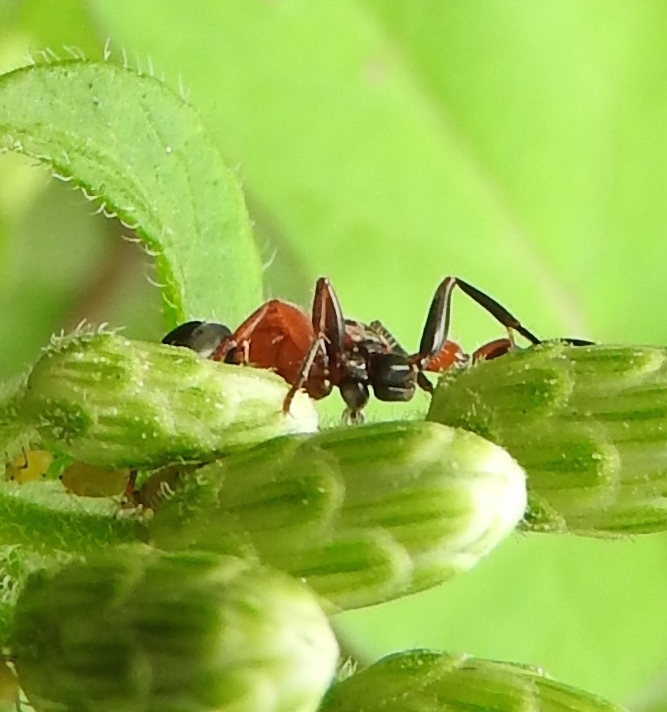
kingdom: Animalia
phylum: Arthropoda
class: Insecta
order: Hymenoptera
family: Formicidae
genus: Pseudomyrmex
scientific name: Pseudomyrmex gracilis
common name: Graceful twig ant
